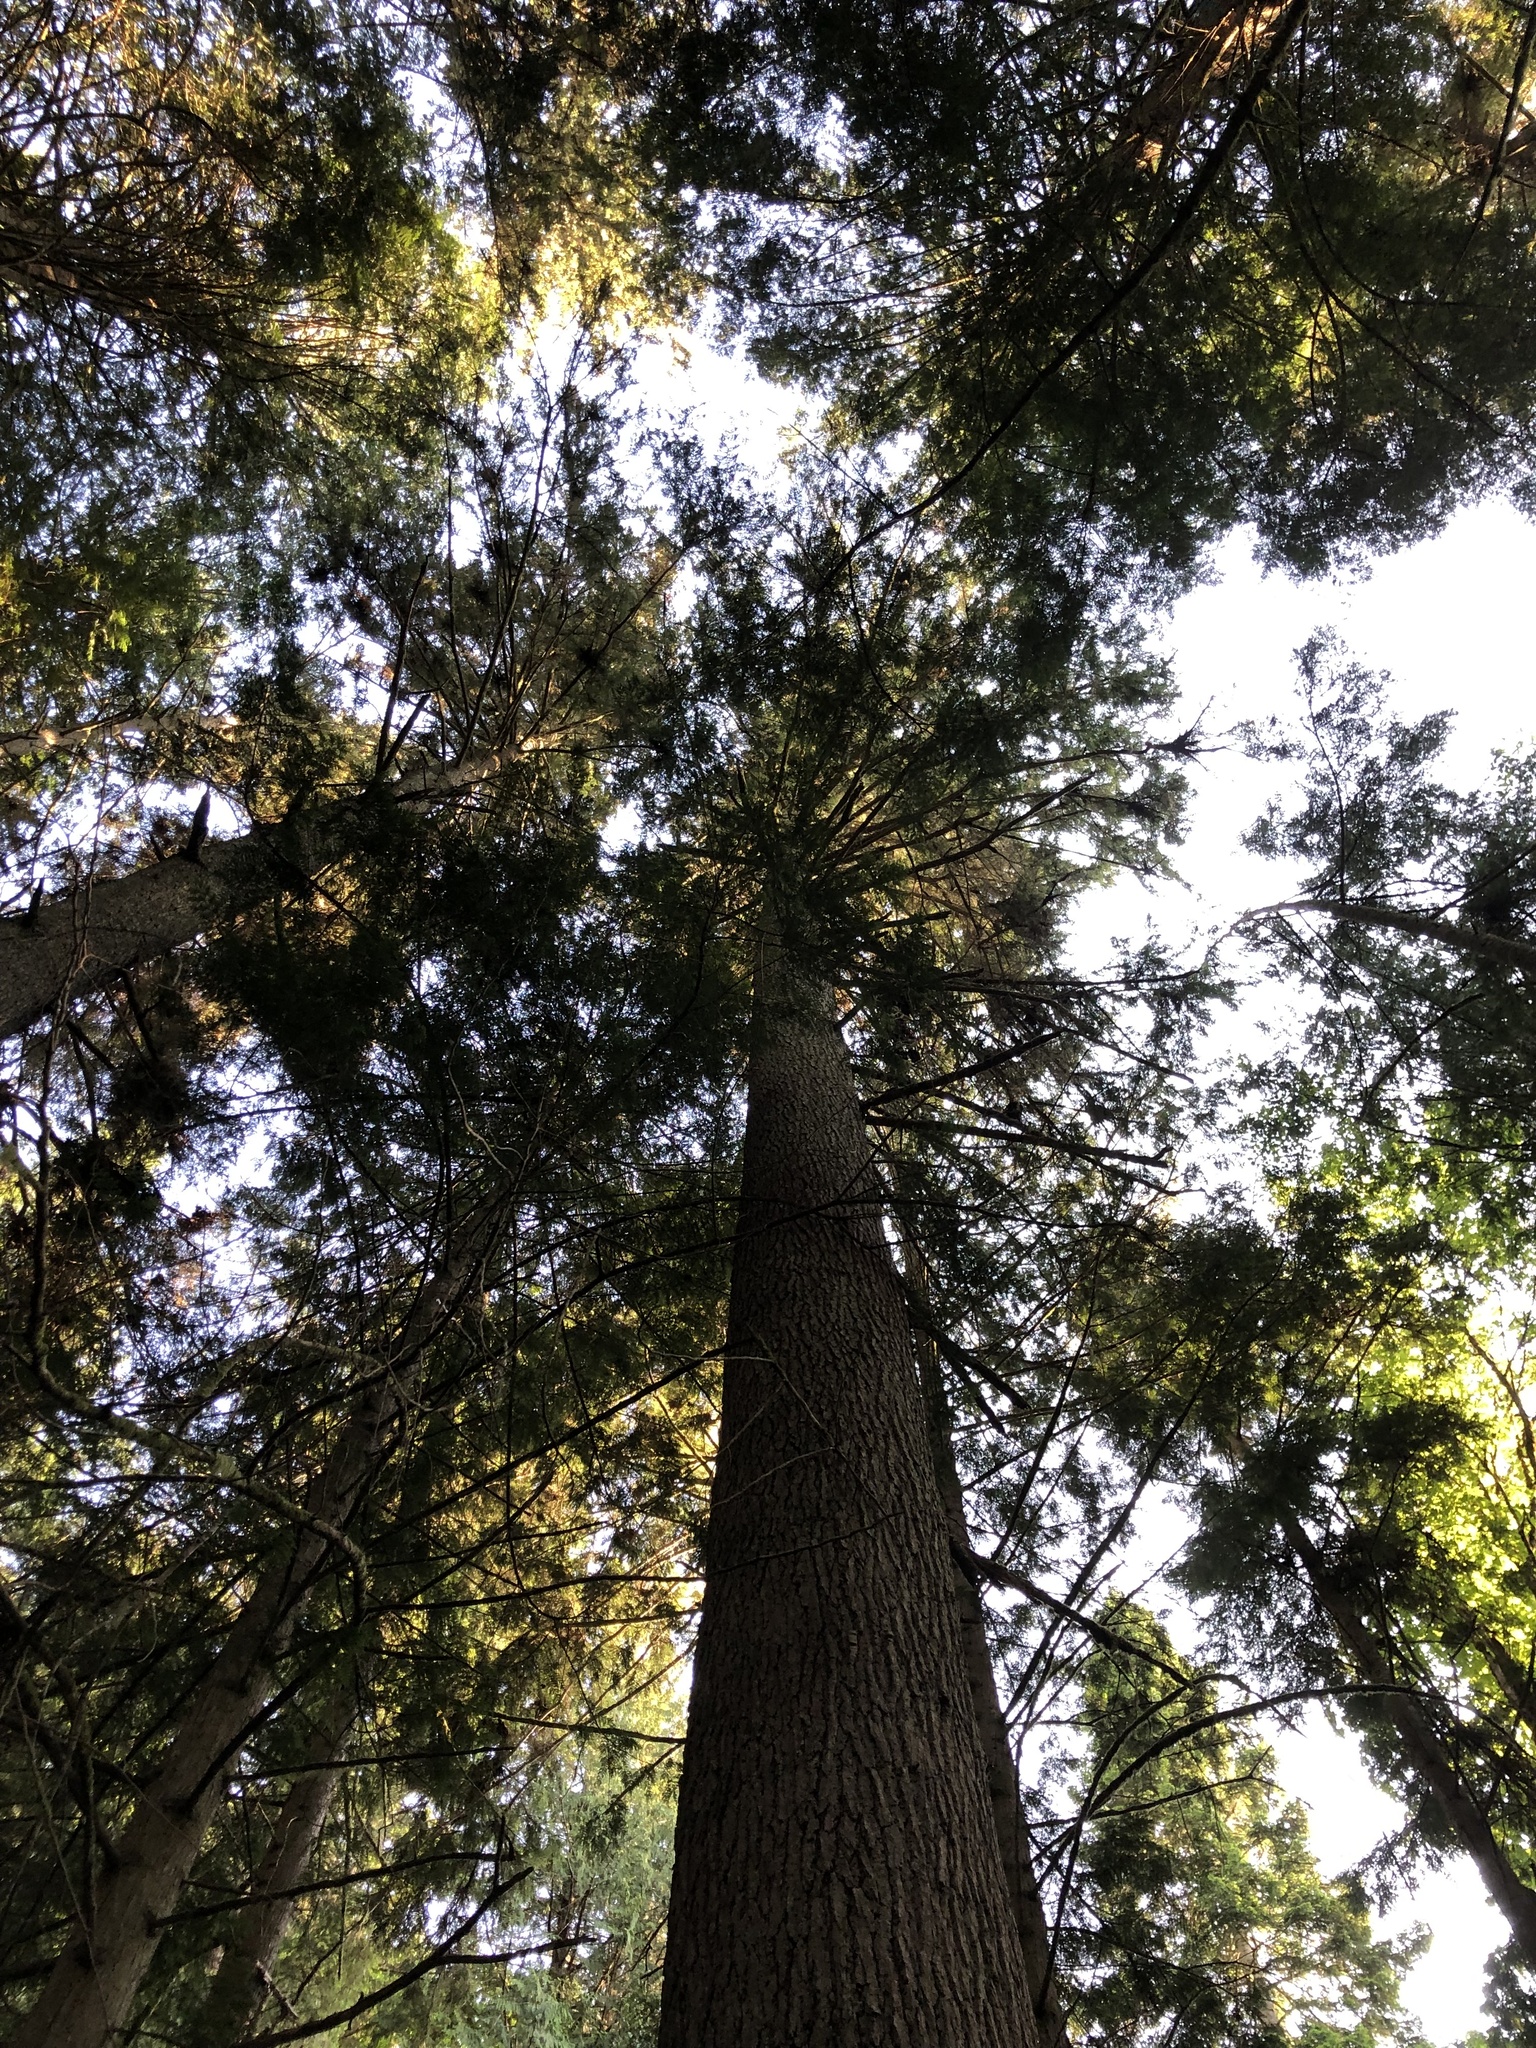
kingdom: Plantae
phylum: Tracheophyta
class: Pinopsida
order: Pinales
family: Pinaceae
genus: Tsuga
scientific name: Tsuga heterophylla
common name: Western hemlock
